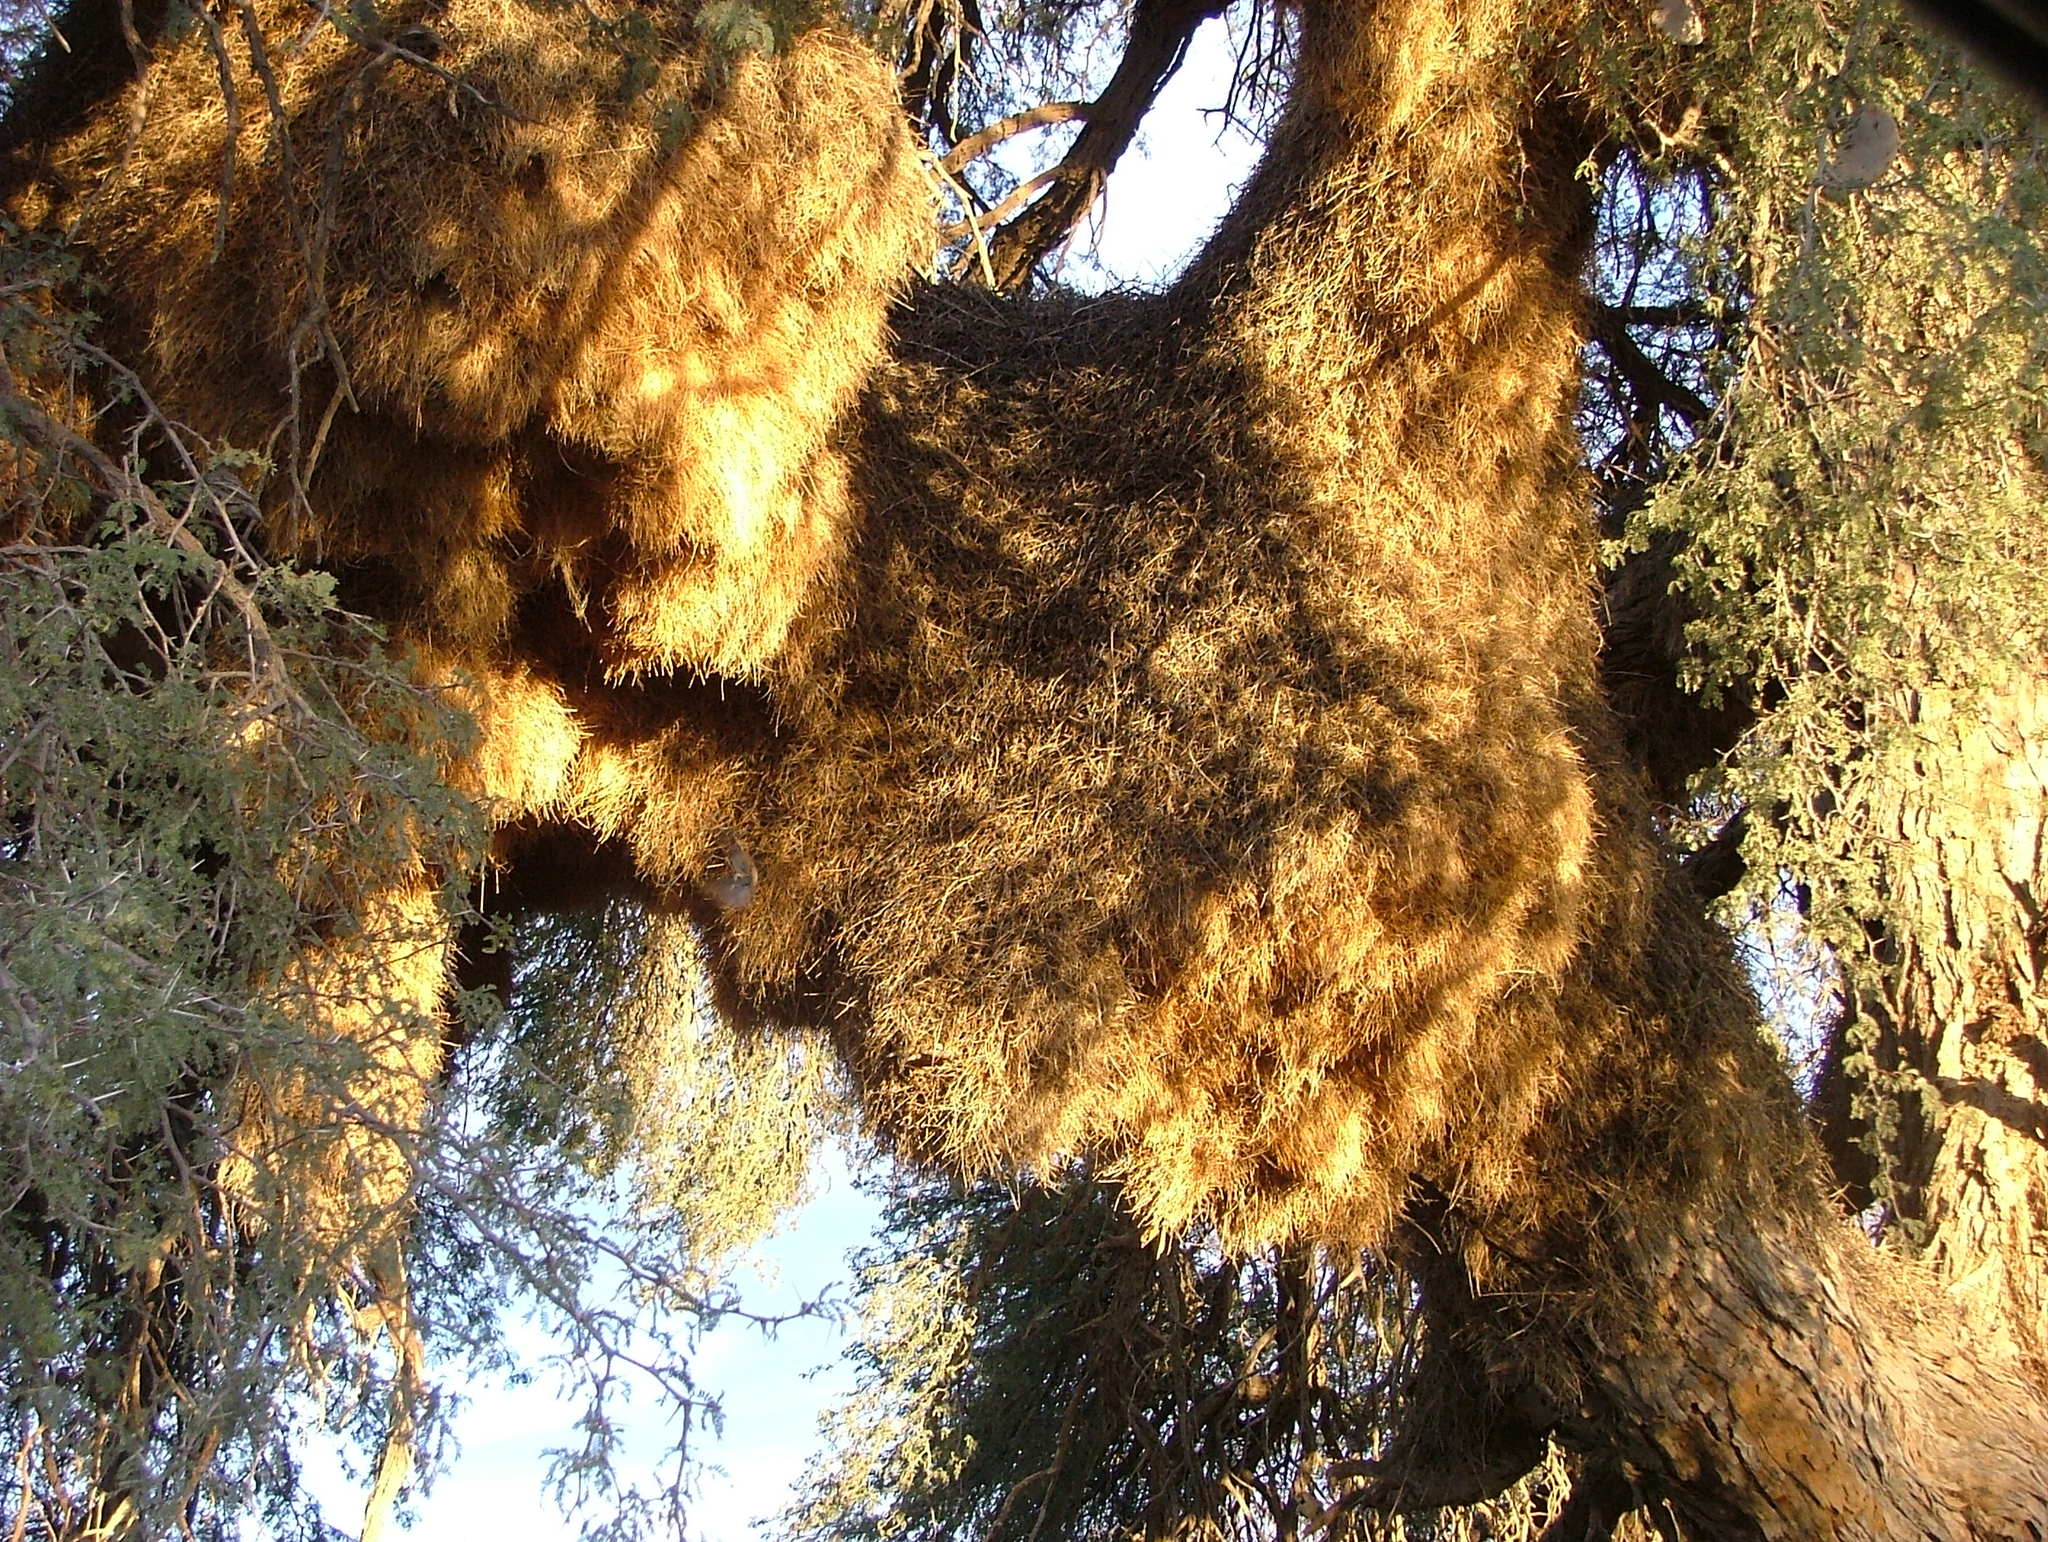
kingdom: Animalia
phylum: Chordata
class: Aves
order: Passeriformes
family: Passeridae
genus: Philetairus
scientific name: Philetairus socius
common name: Sociable weaver
